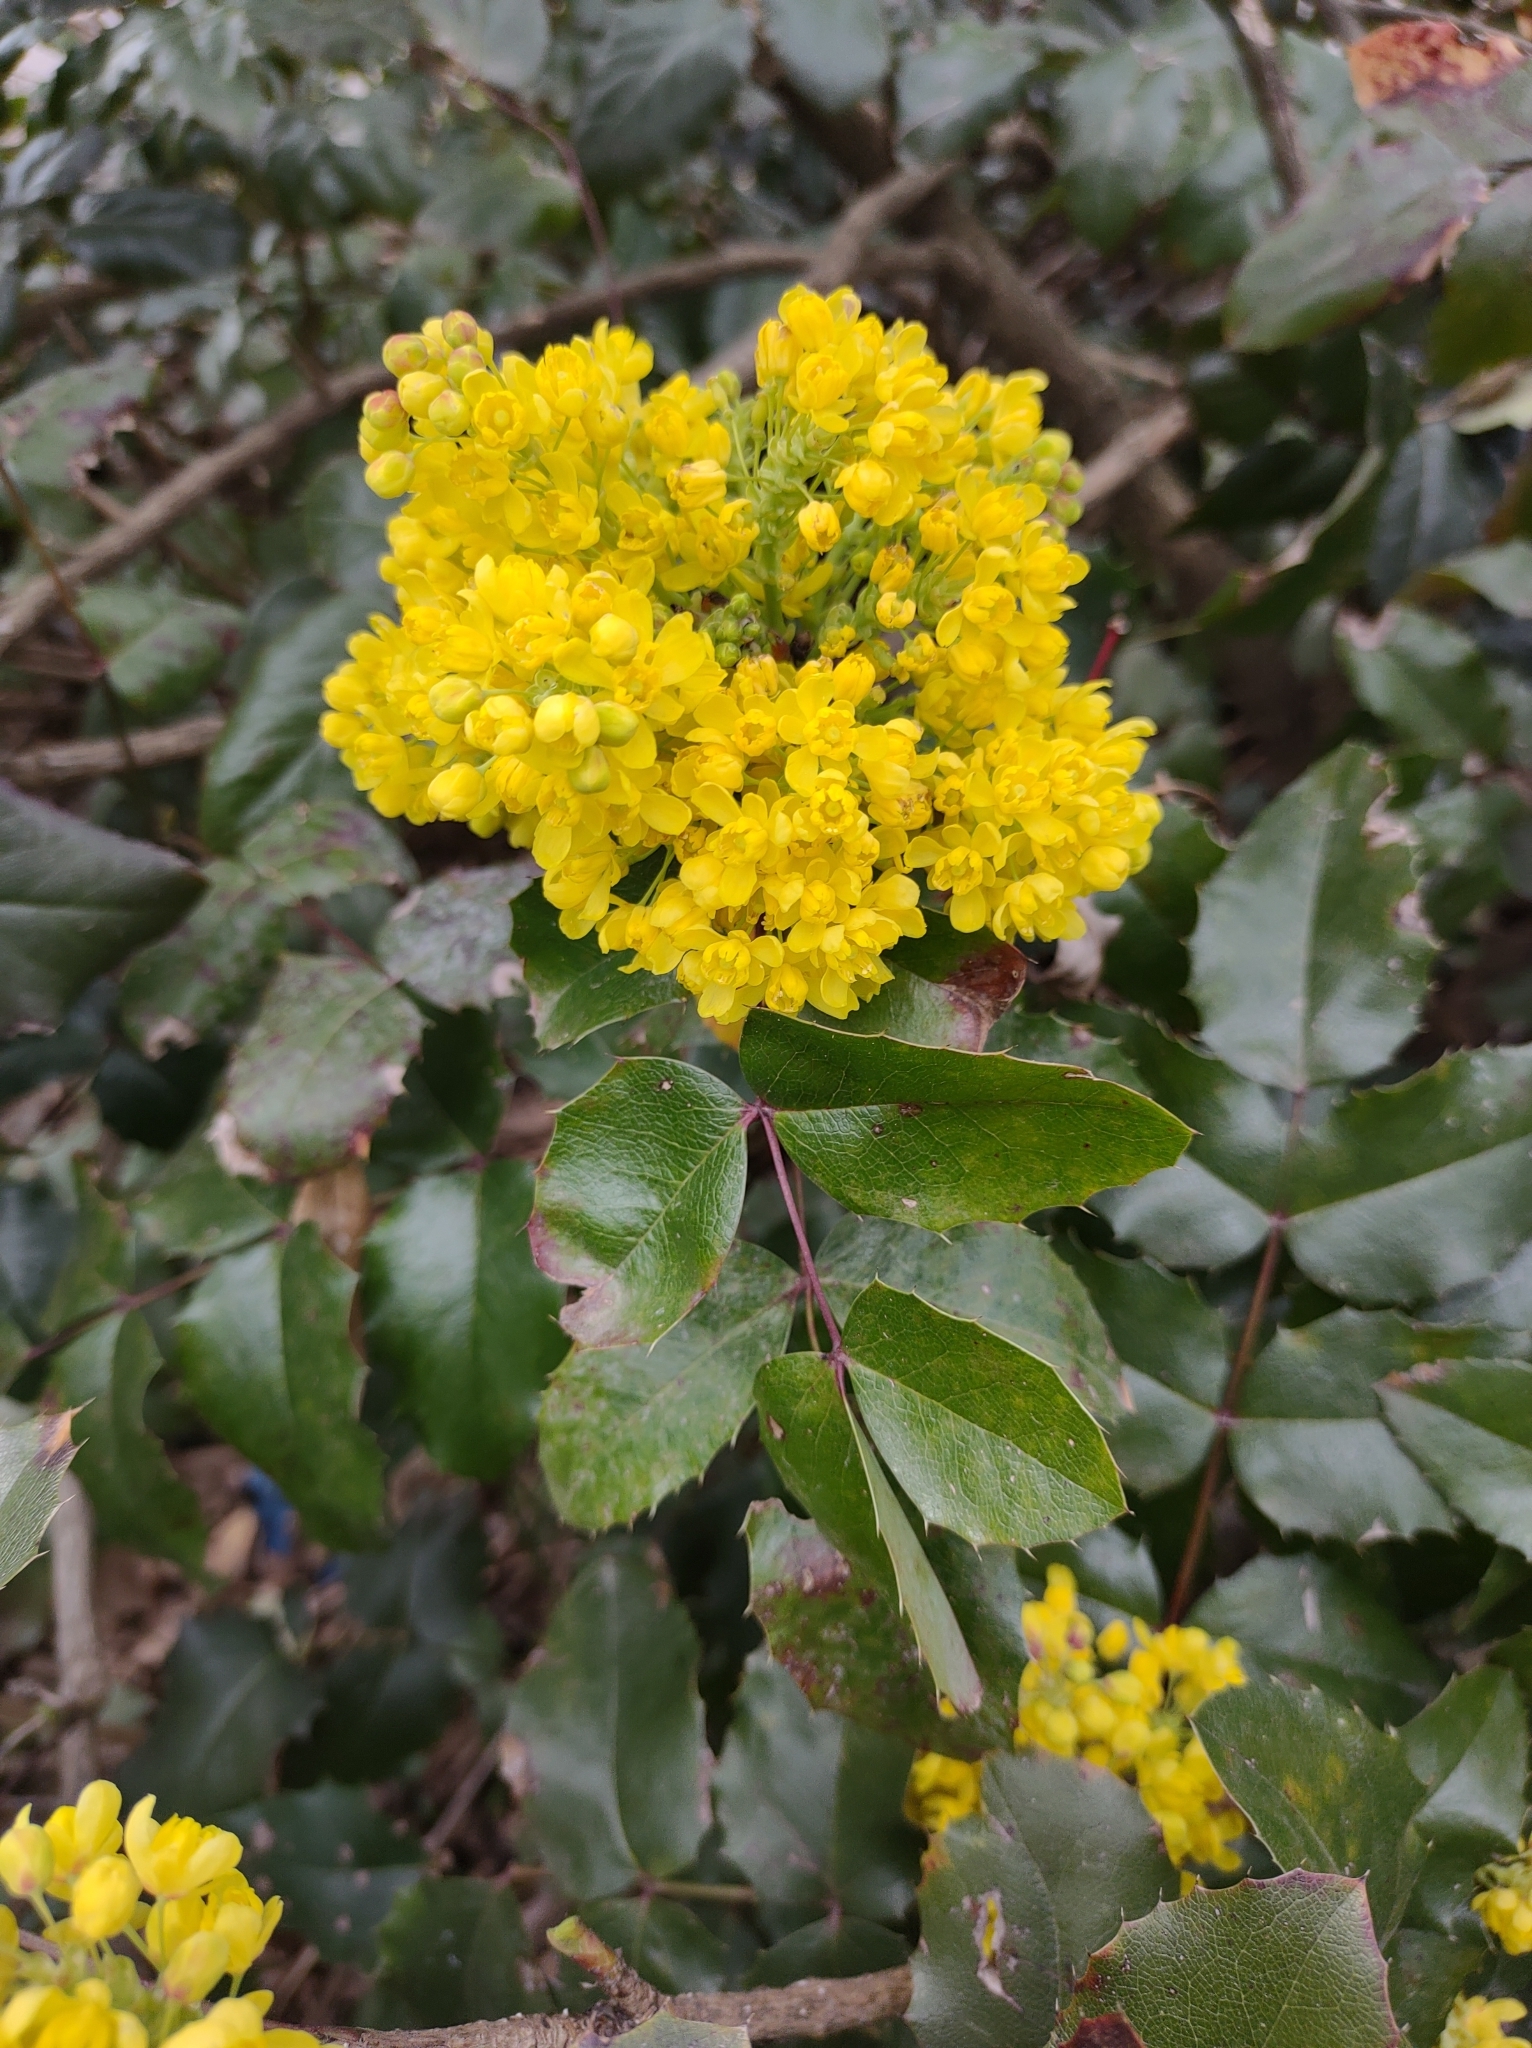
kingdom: Plantae
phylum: Tracheophyta
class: Magnoliopsida
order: Ranunculales
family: Berberidaceae
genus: Mahonia
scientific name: Mahonia aquifolium
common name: Oregon-grape
